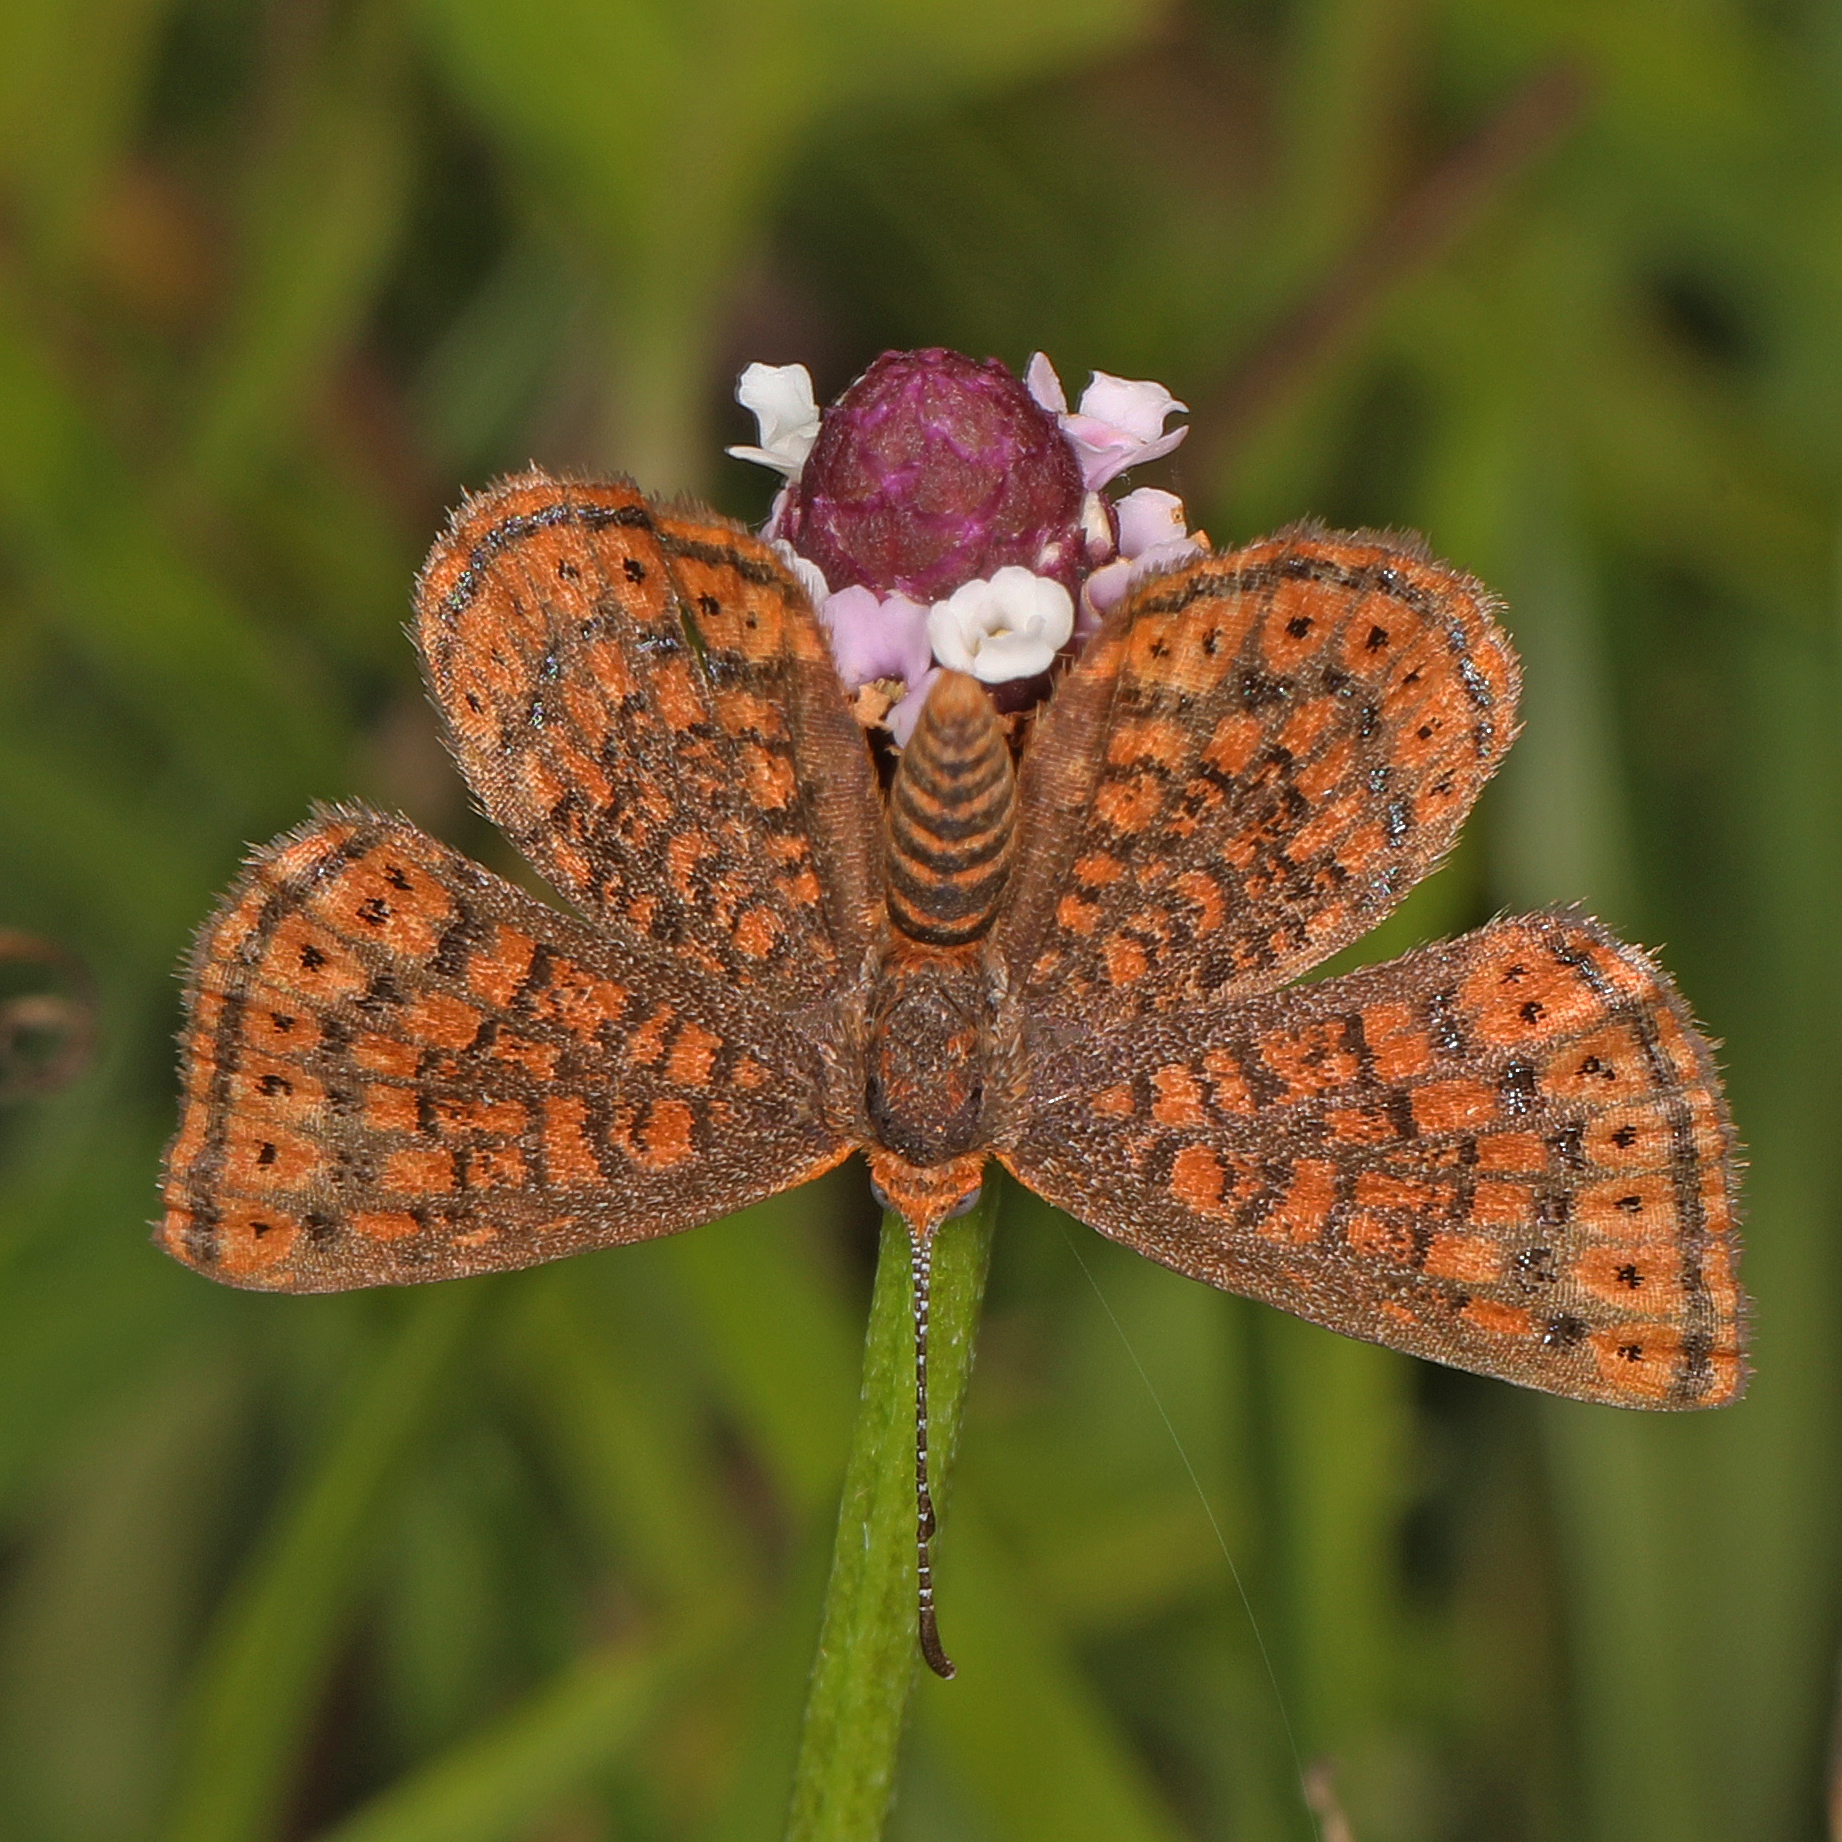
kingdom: Animalia
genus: Calephelis
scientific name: Calephelis virginiensis
